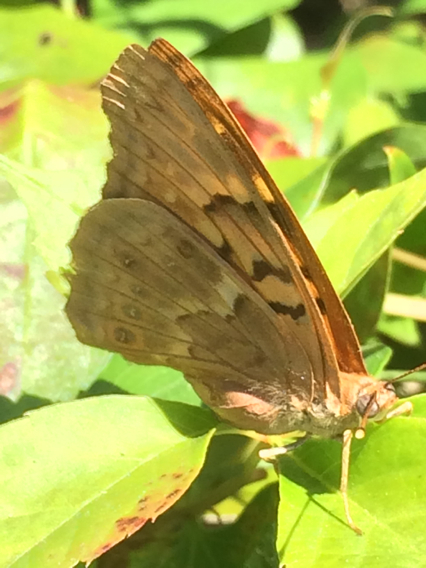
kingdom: Animalia
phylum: Arthropoda
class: Insecta
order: Lepidoptera
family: Nymphalidae
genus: Euptoieta
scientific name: Euptoieta claudia
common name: Variegated fritillary
